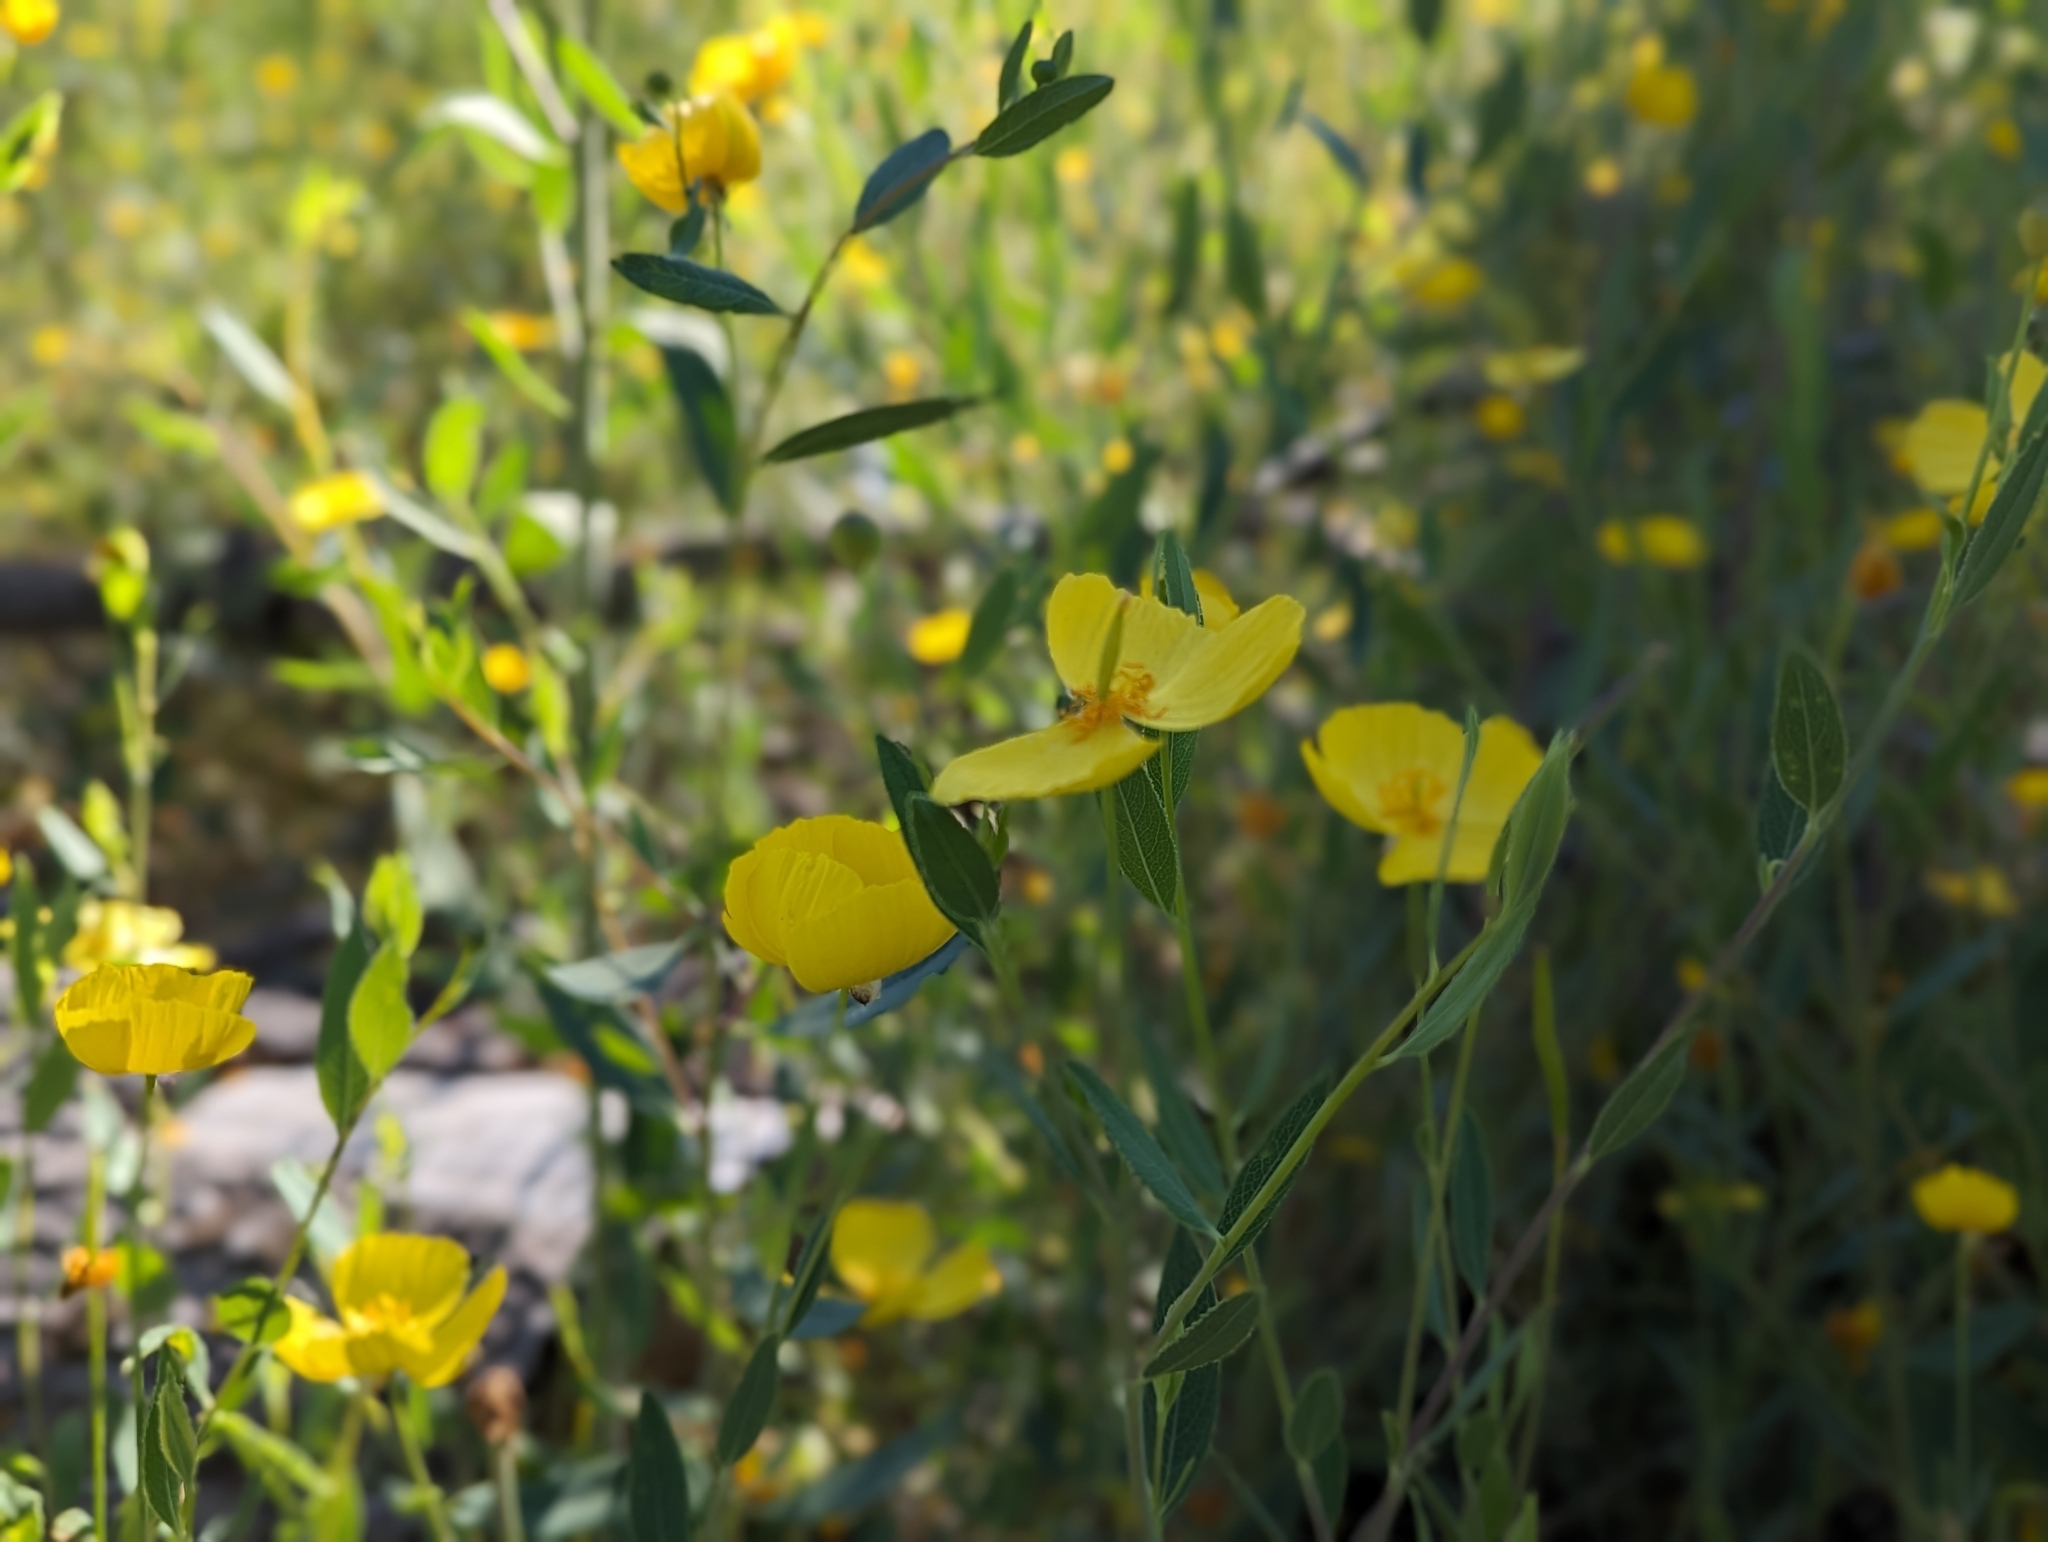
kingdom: Plantae
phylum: Tracheophyta
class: Magnoliopsida
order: Ranunculales
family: Papaveraceae
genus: Dendromecon
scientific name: Dendromecon rigida
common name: Tree poppy
